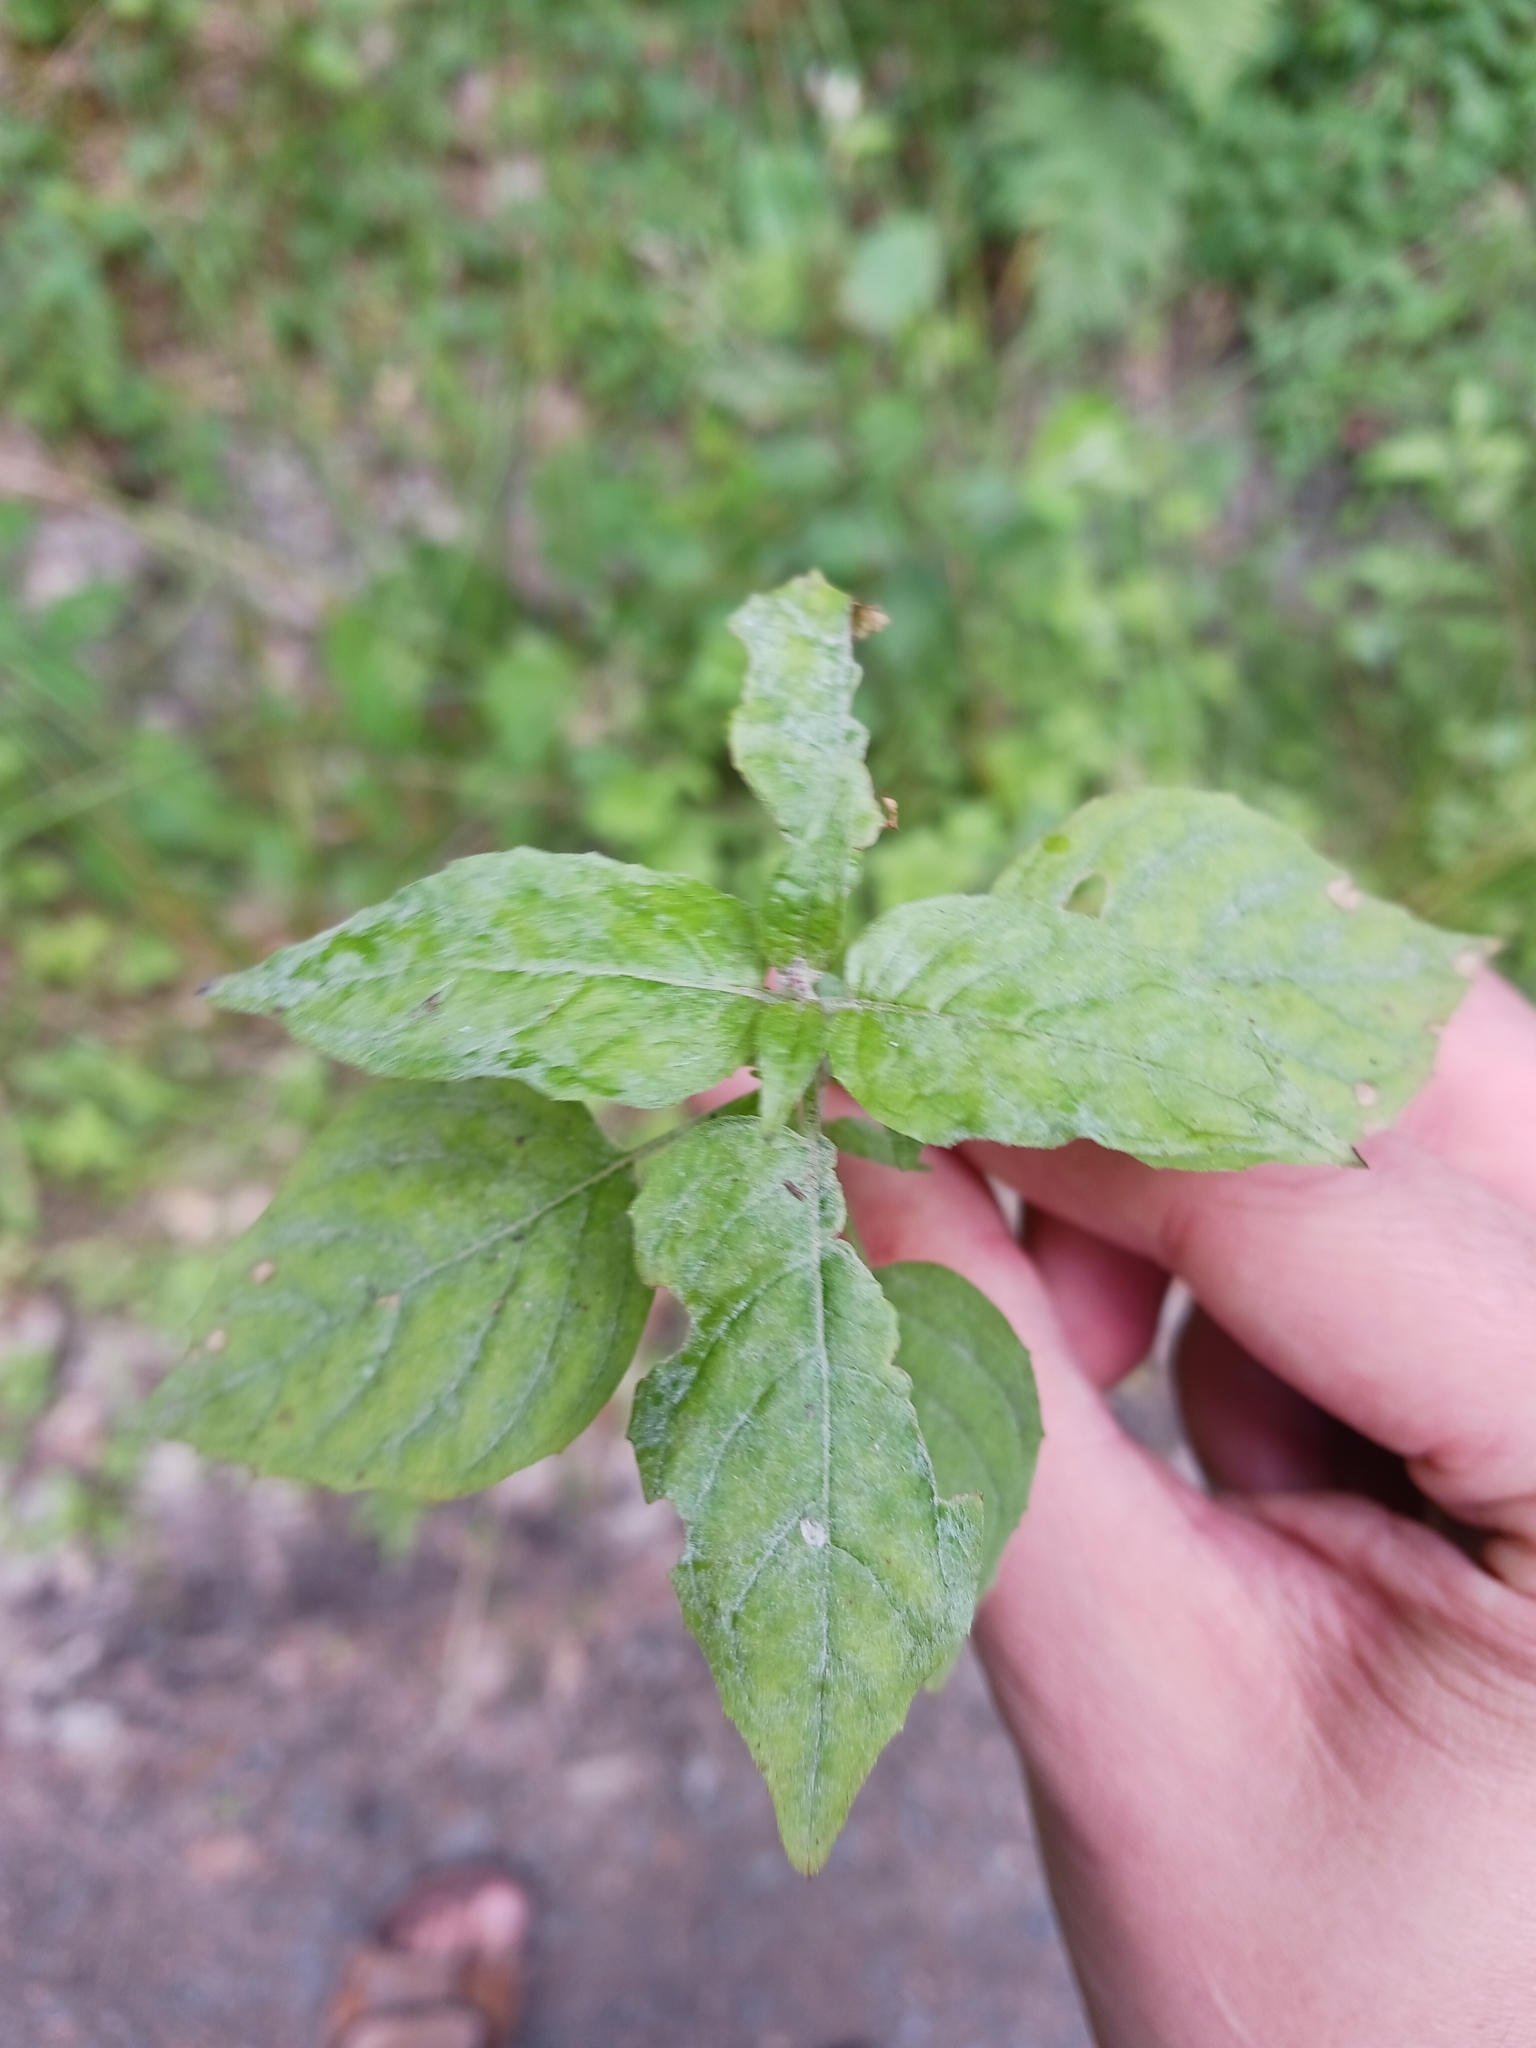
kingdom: Fungi
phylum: Ascomycota
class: Leotiomycetes
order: Helotiales
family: Erysiphaceae
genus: Erysiphe
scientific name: Erysiphe circaeae
